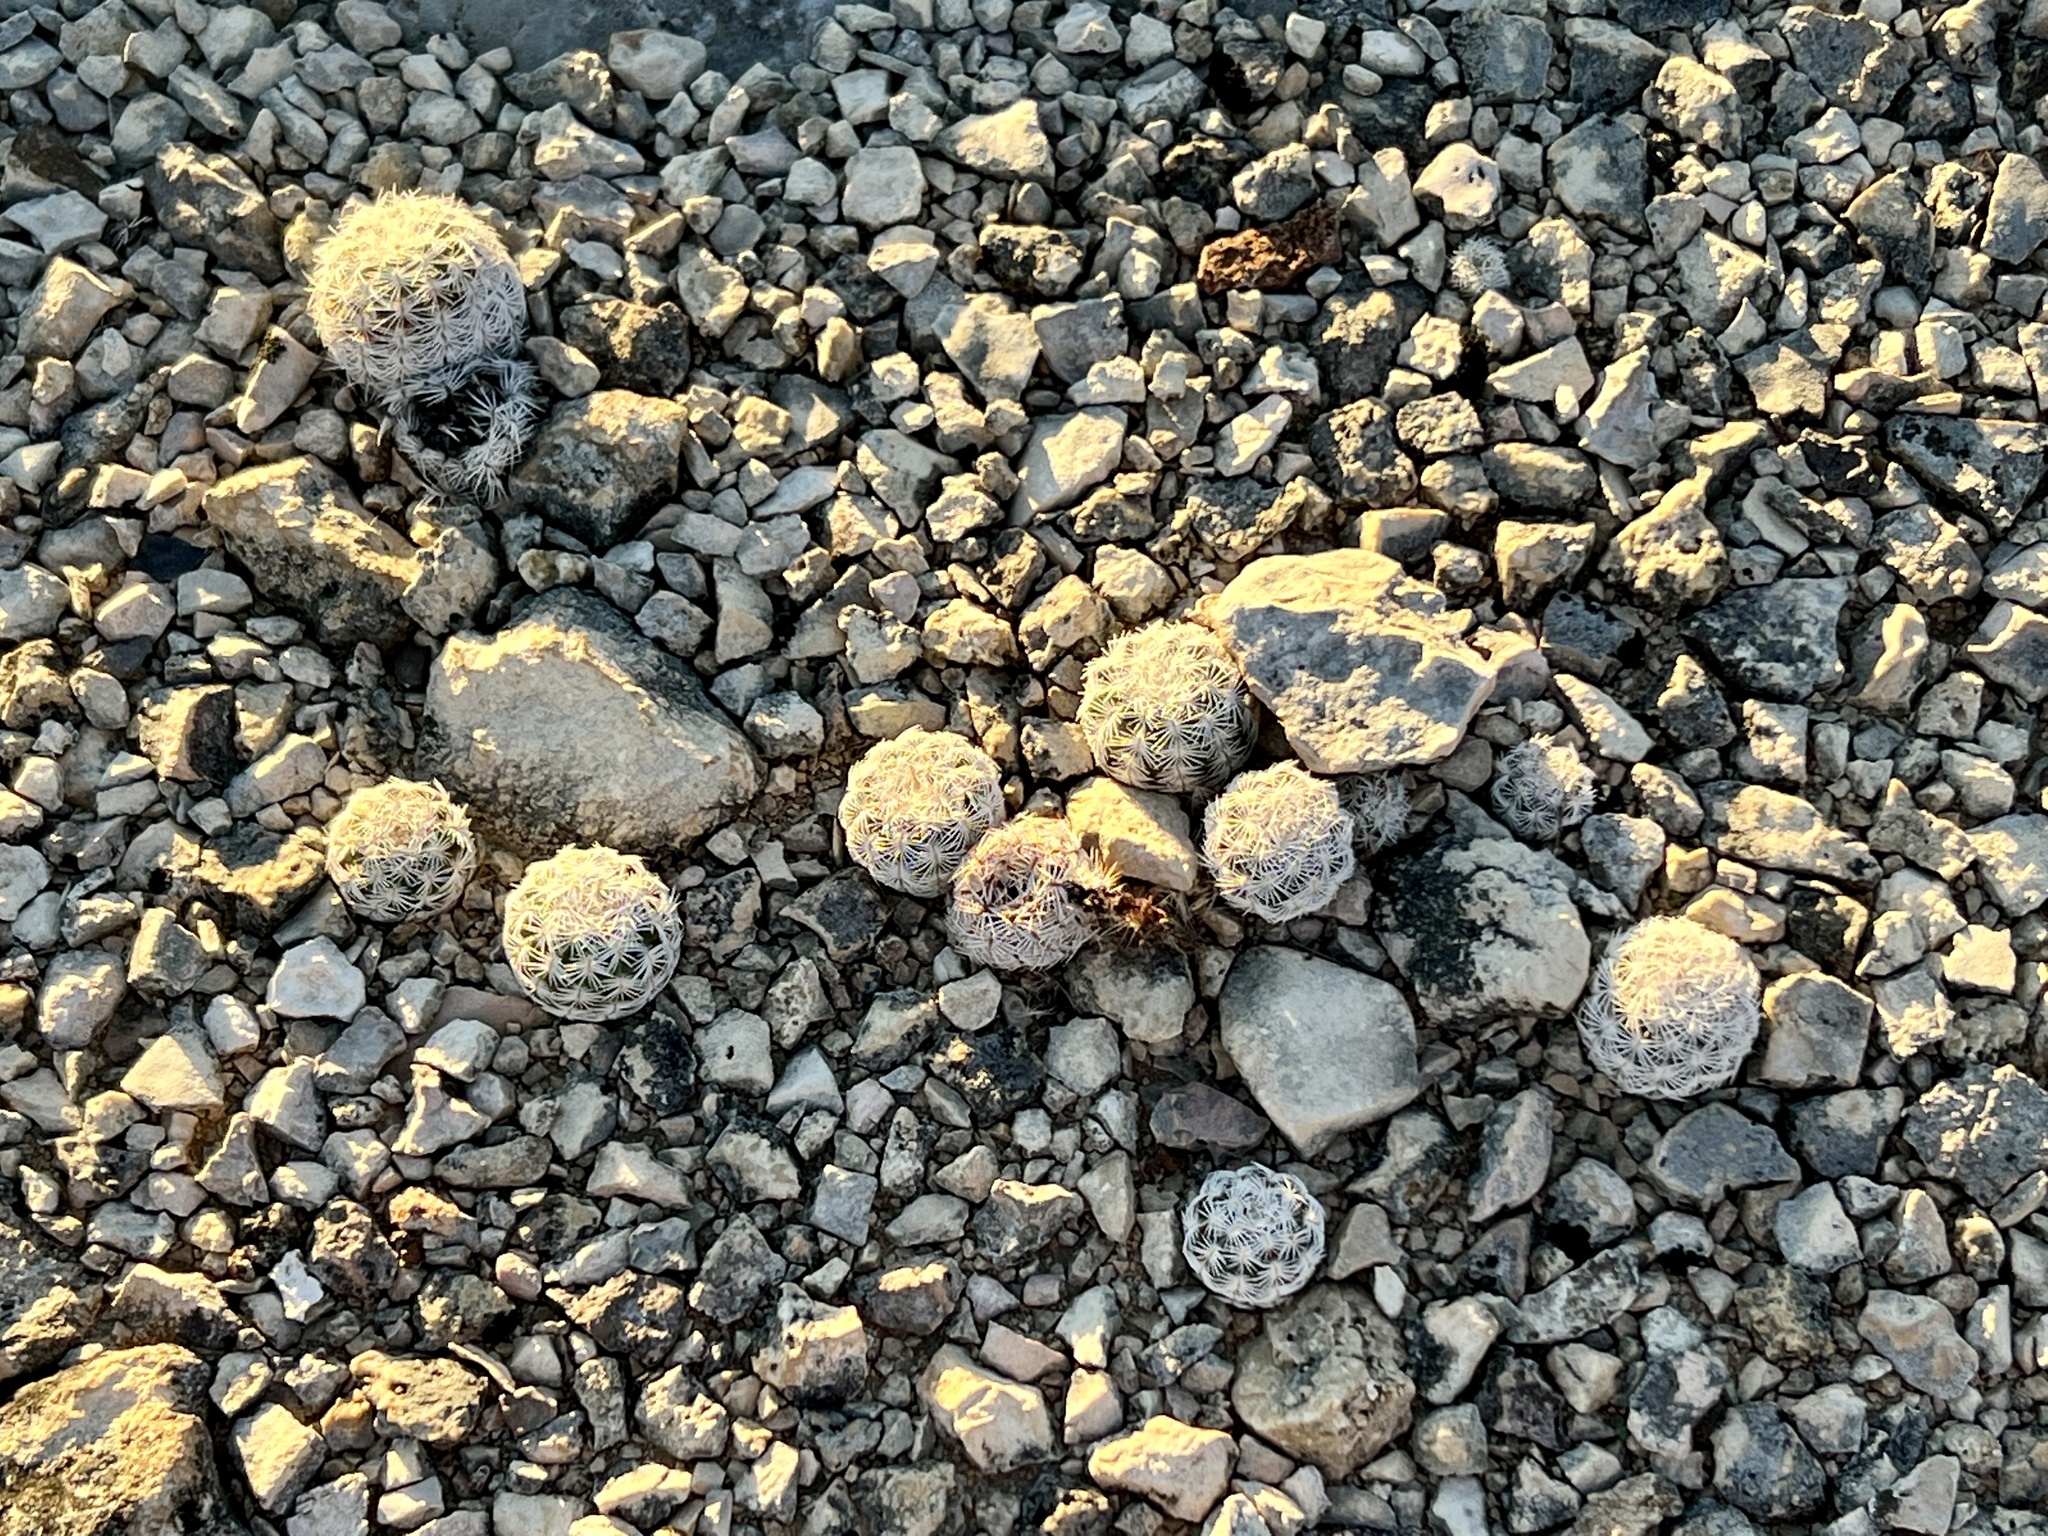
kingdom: Plantae
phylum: Tracheophyta
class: Magnoliopsida
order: Caryophyllales
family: Cactaceae
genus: Echinocereus
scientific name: Echinocereus reichenbachii
